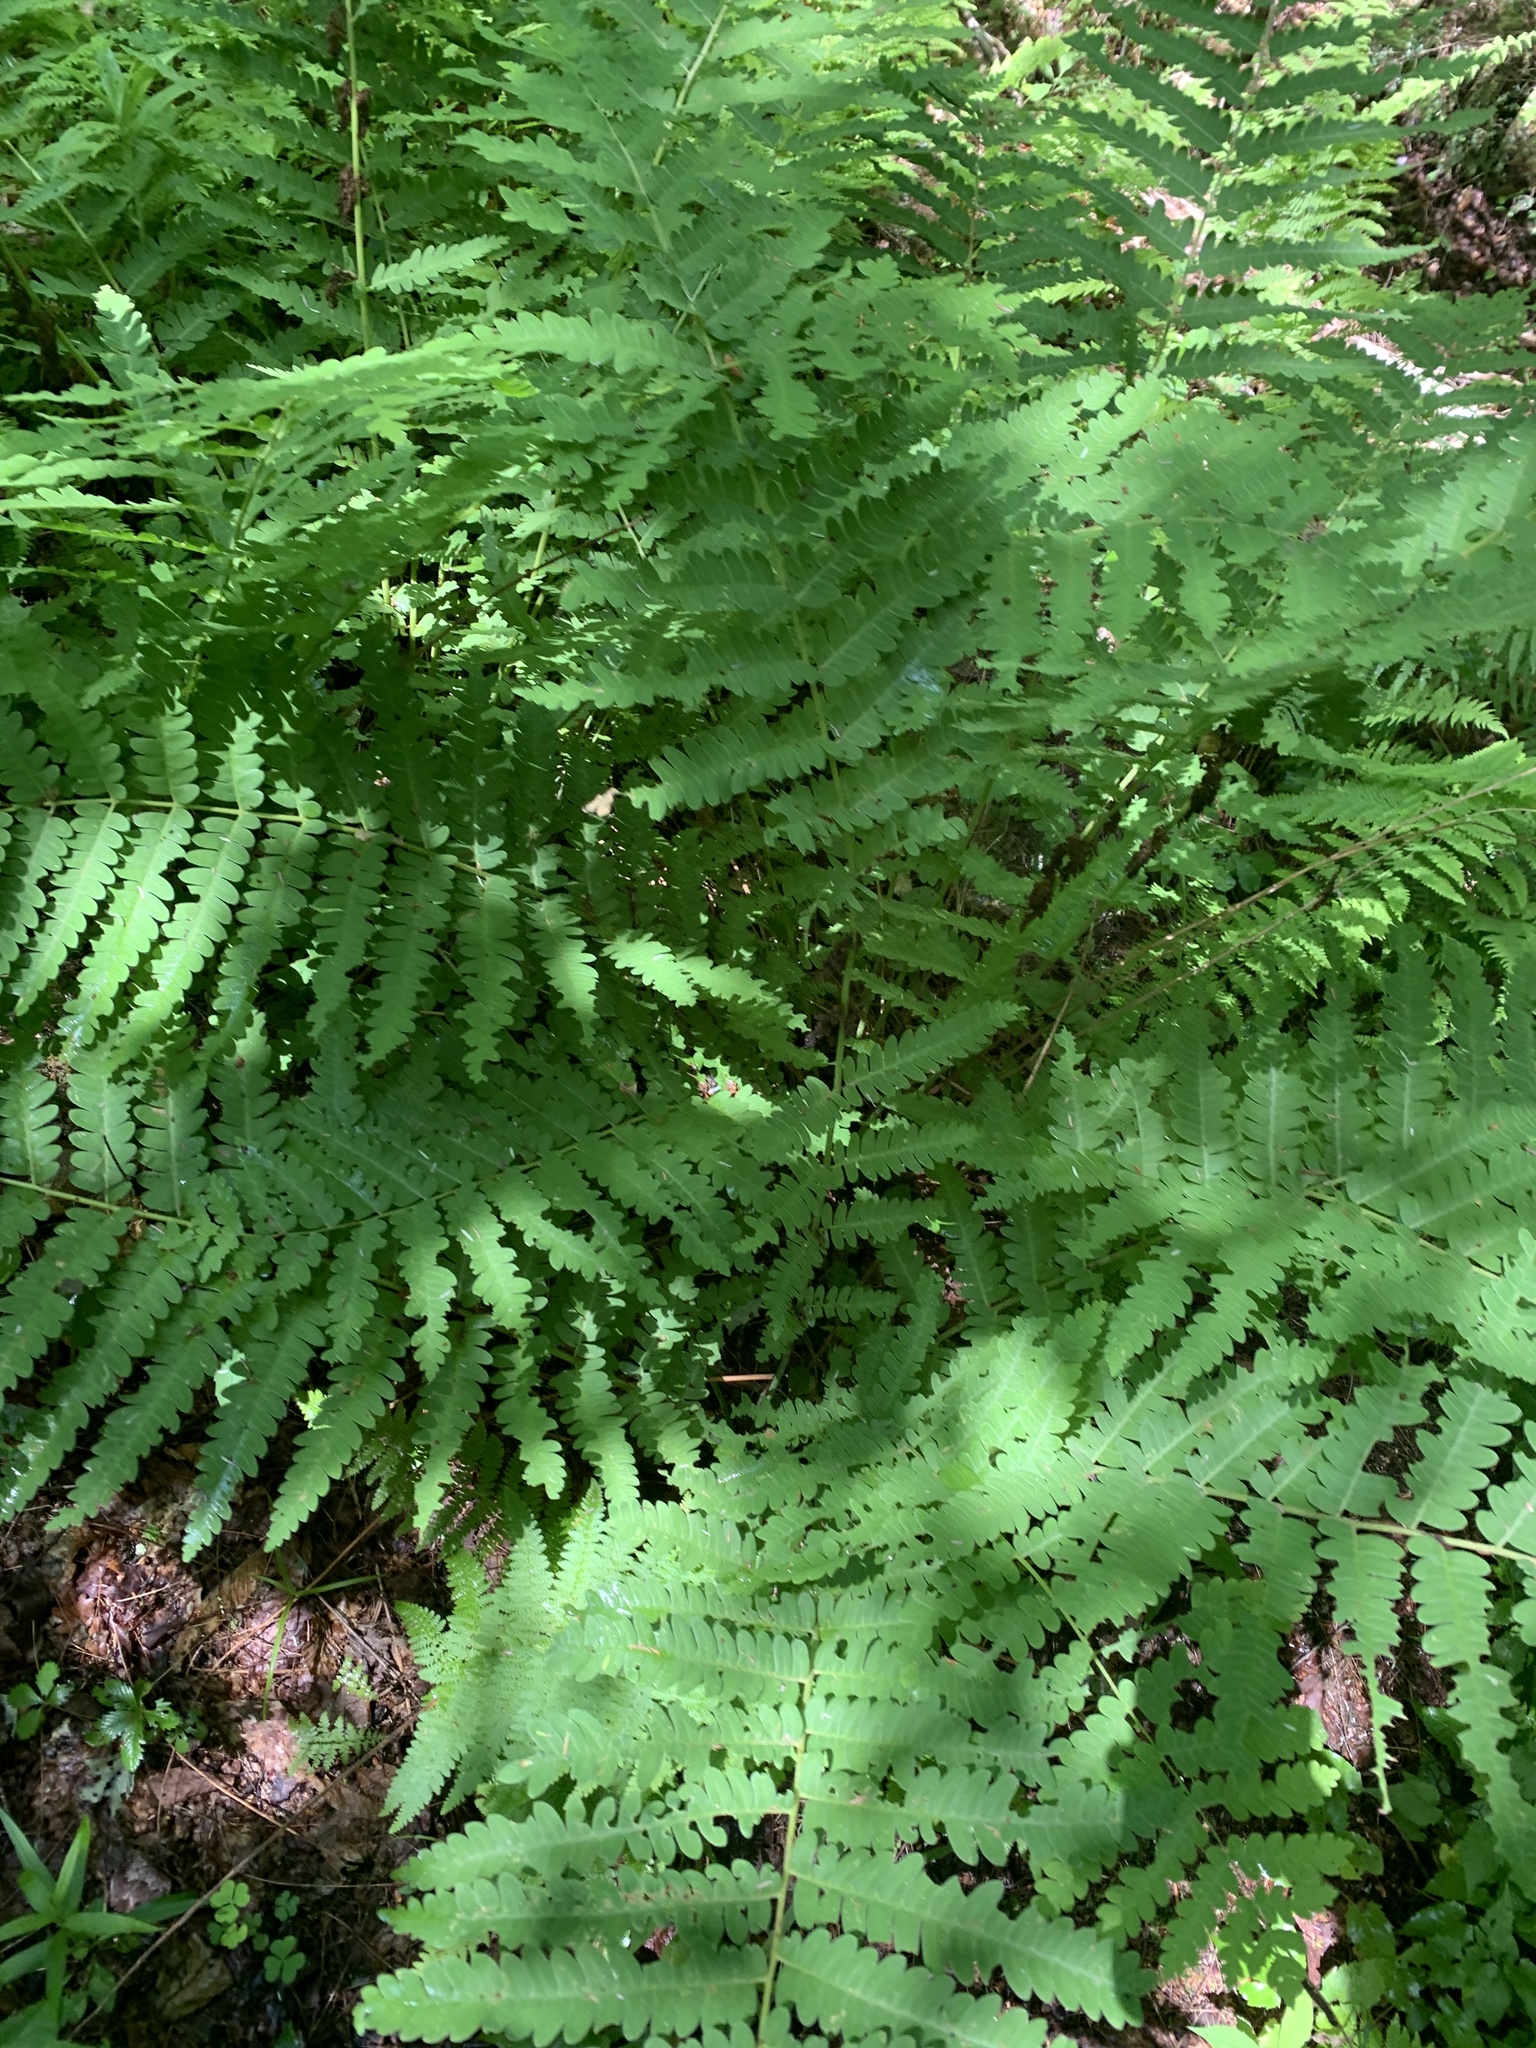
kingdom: Plantae
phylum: Tracheophyta
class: Polypodiopsida
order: Osmundales
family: Osmundaceae
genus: Claytosmunda
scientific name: Claytosmunda claytoniana
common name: Clayton's fern
